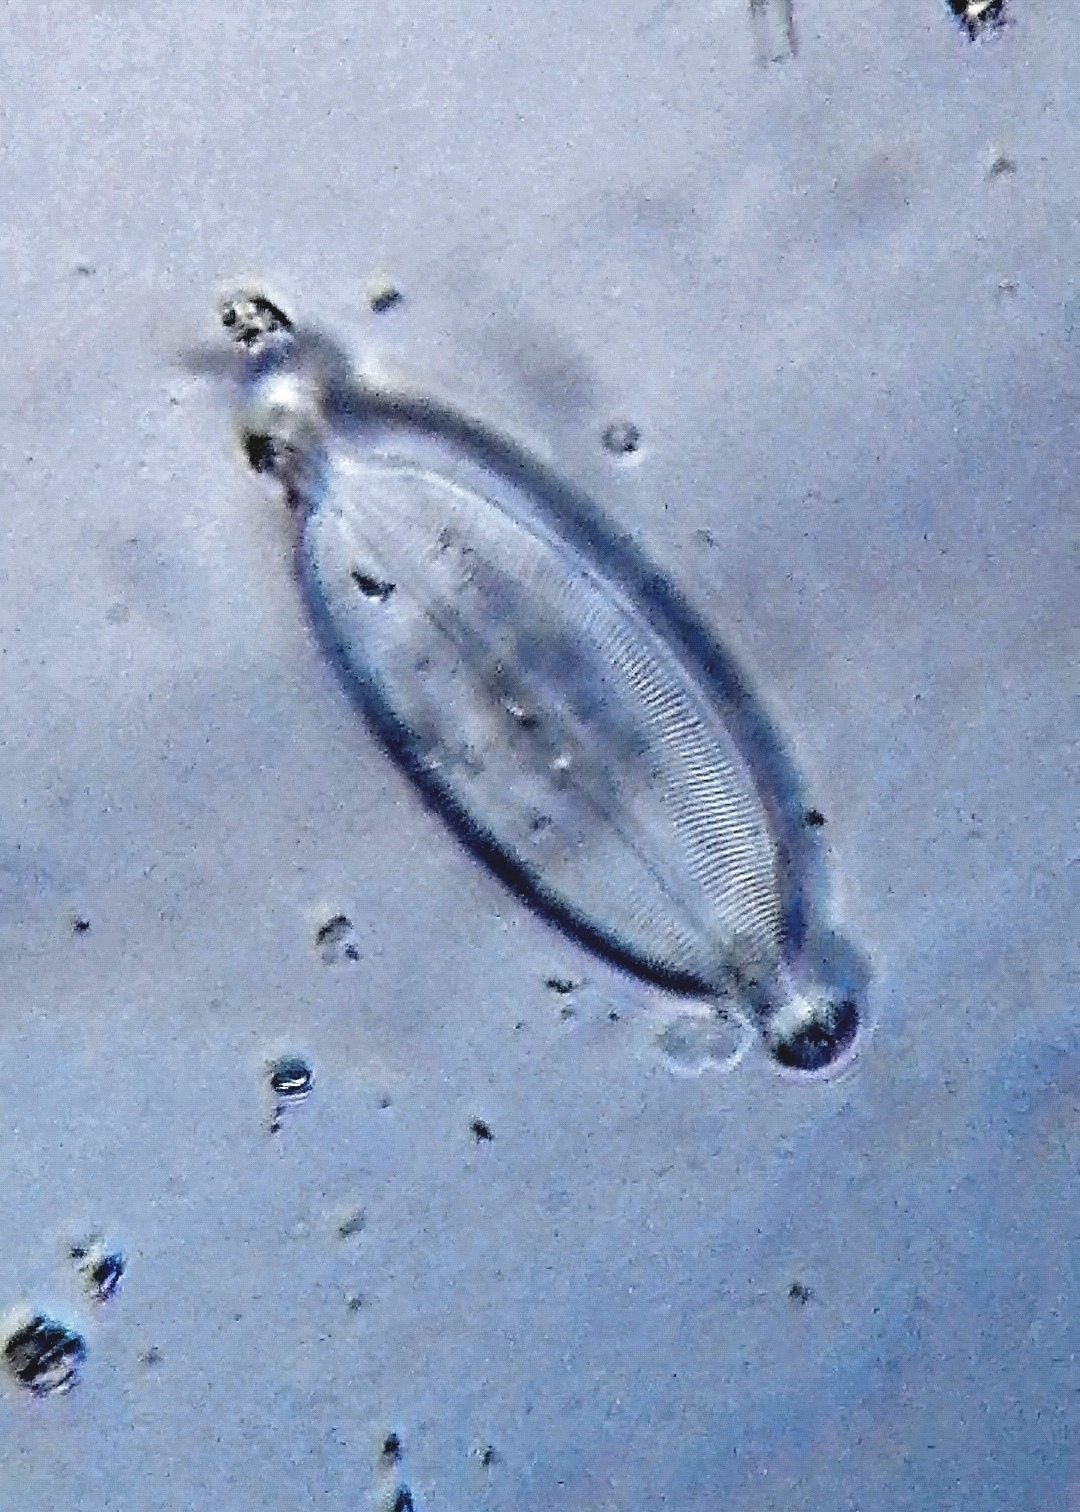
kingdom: Chromista
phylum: Ochrophyta
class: Bacillariophyceae
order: Naviculales
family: Naviculaceae
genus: Caloneis
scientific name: Caloneis amphisbaena
